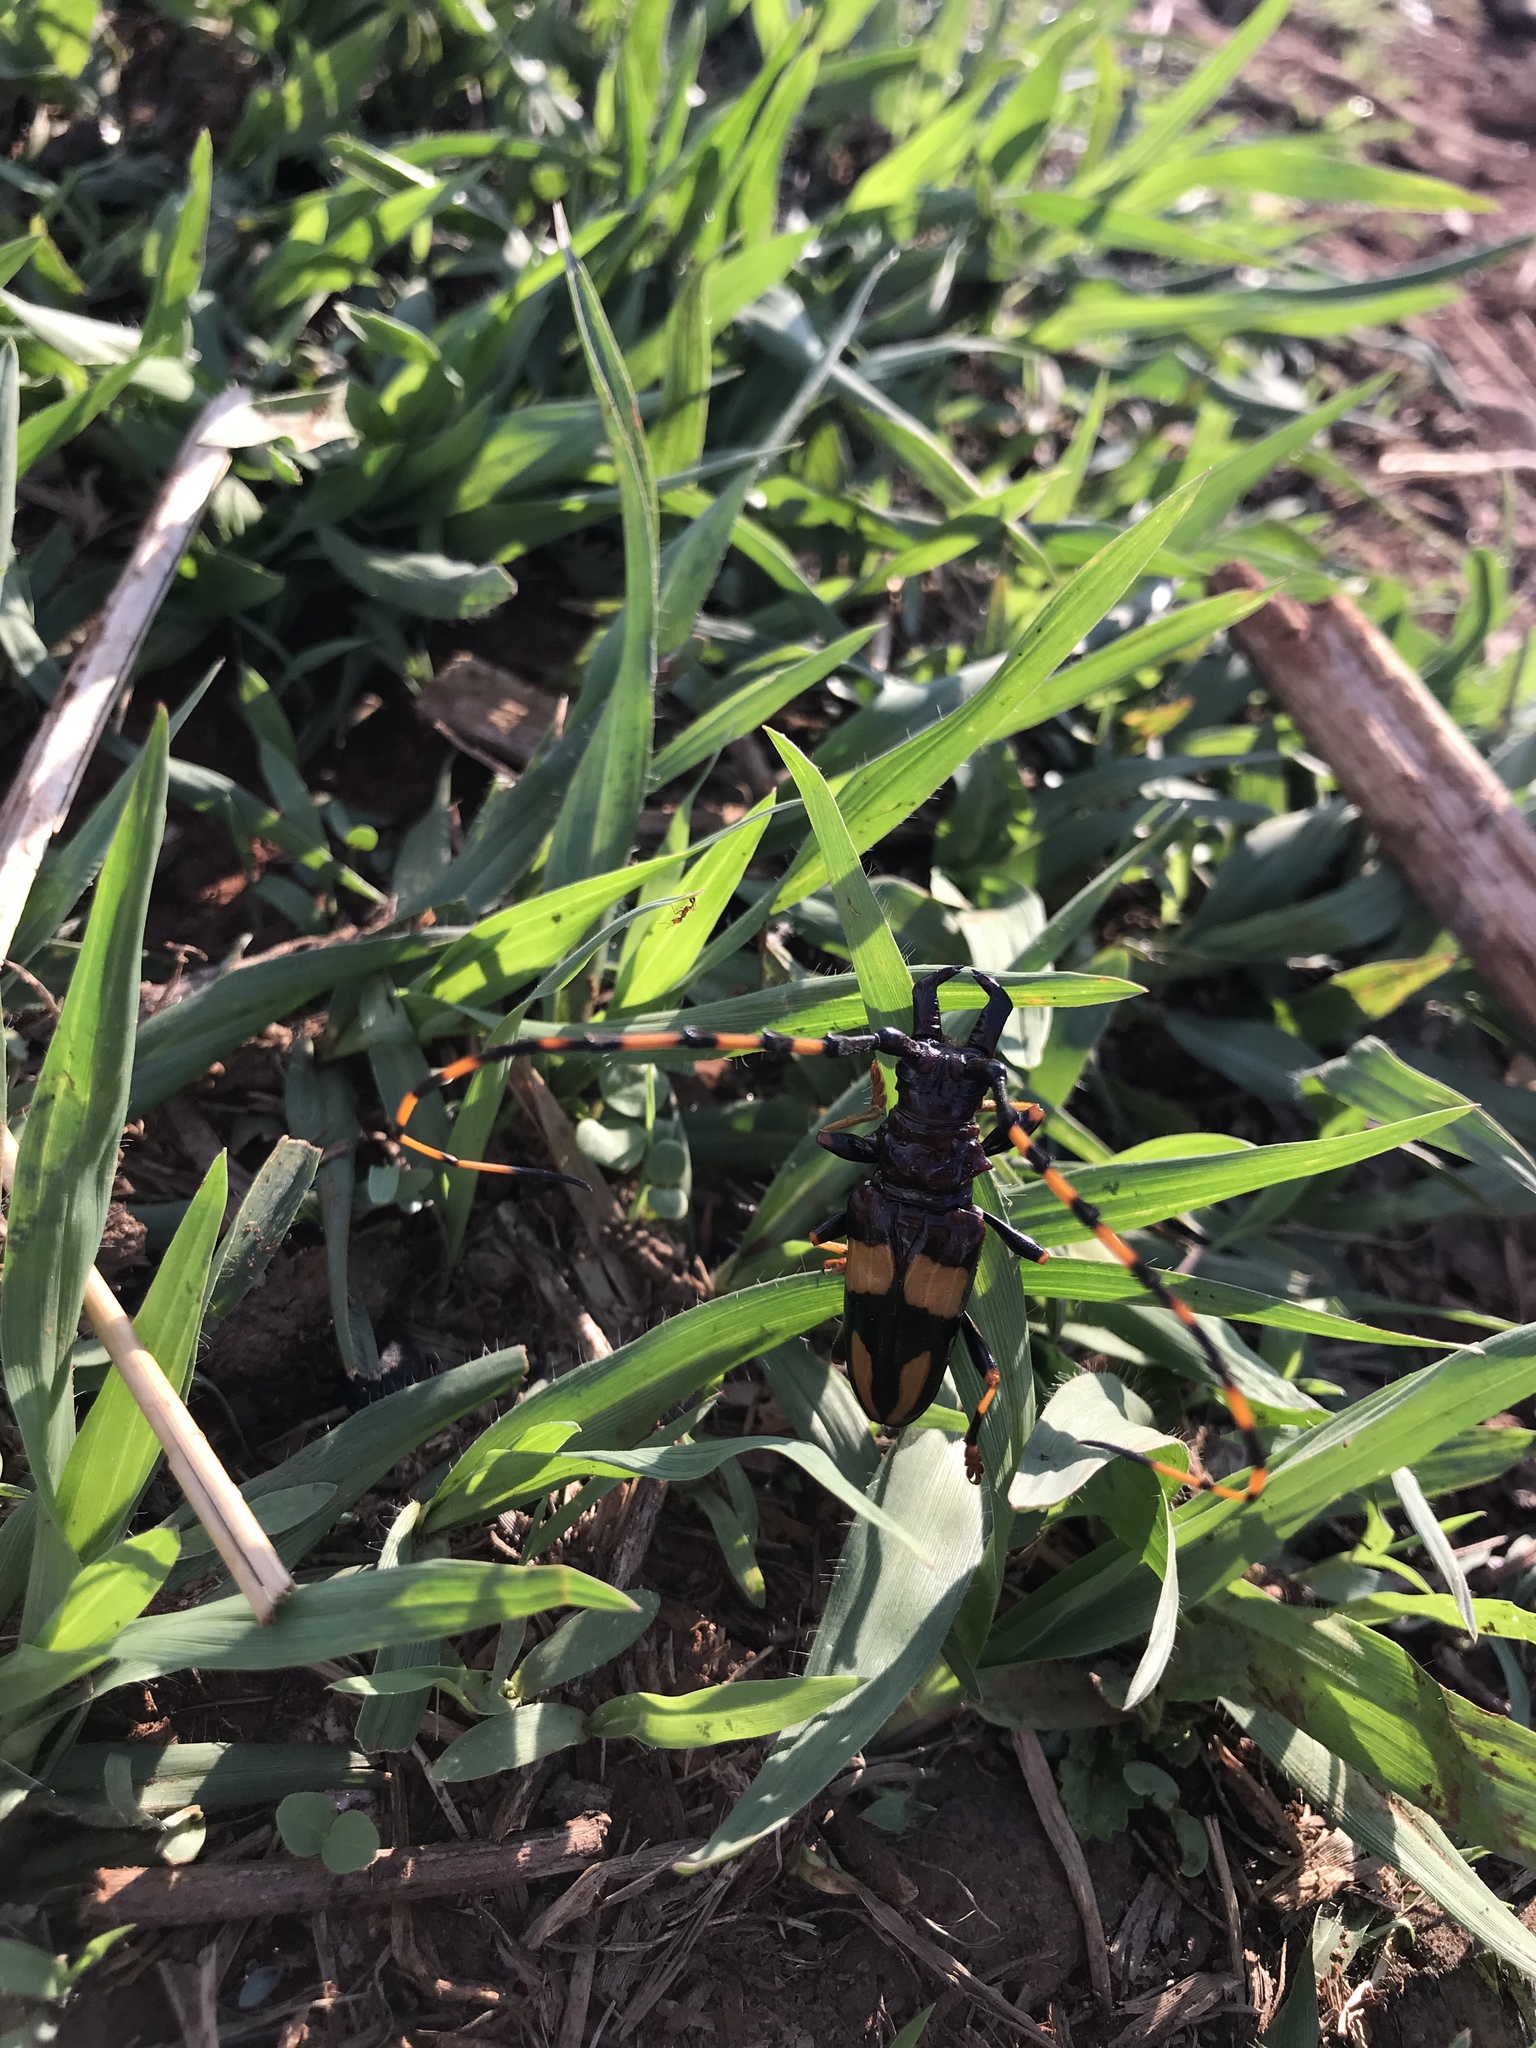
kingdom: Animalia
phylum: Arthropoda
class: Insecta
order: Coleoptera
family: Cerambycidae
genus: Trachyderes
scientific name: Trachyderes mandibularis
